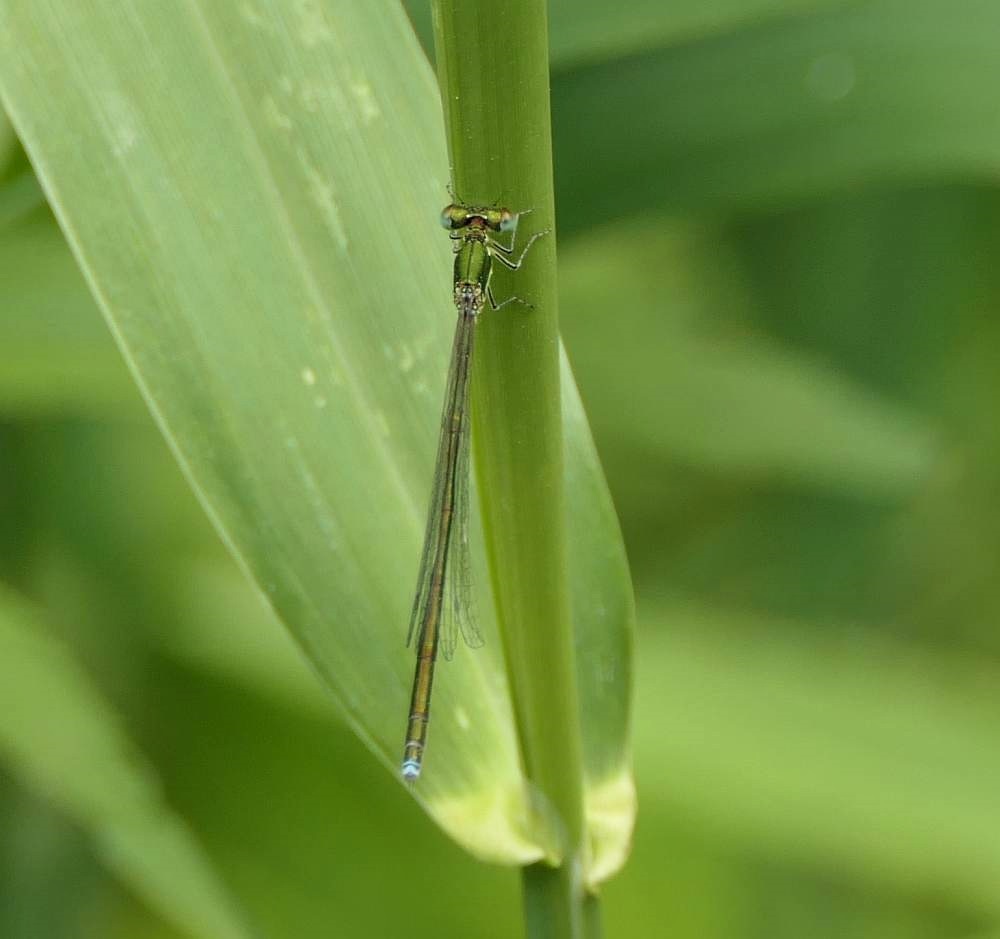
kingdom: Animalia
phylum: Arthropoda
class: Insecta
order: Odonata
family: Coenagrionidae
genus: Nehalennia
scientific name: Nehalennia irene
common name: Sedge sprite
